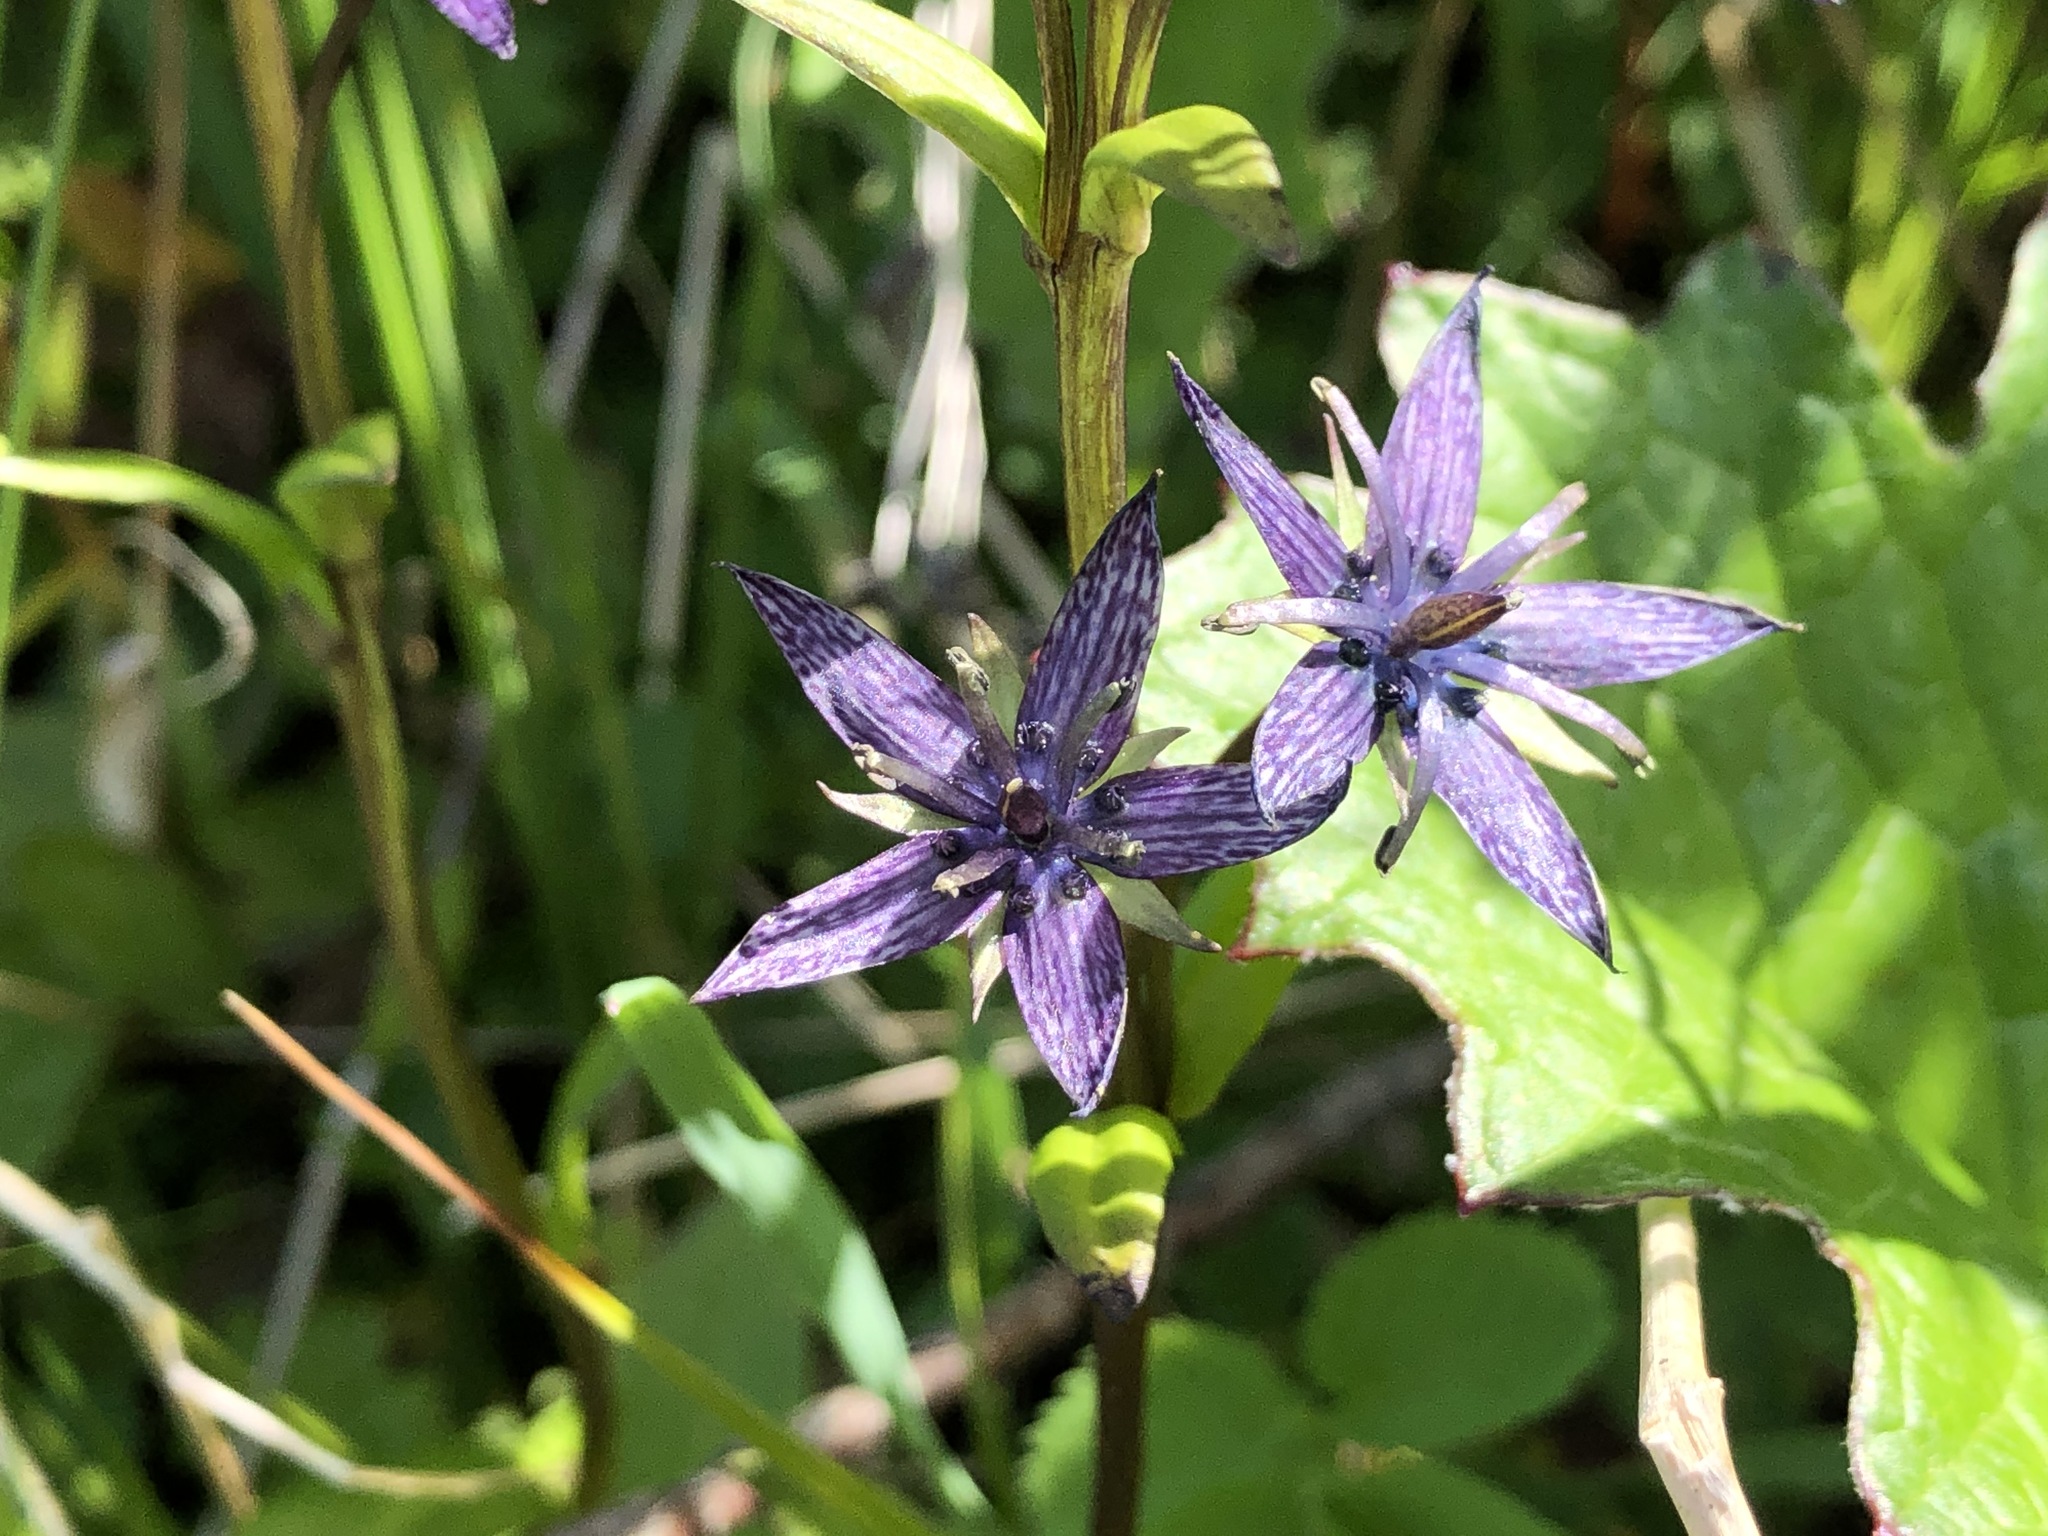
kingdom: Plantae
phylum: Tracheophyta
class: Magnoliopsida
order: Gentianales
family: Gentianaceae
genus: Swertia
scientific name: Swertia perennis
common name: Alpine bog swertia
